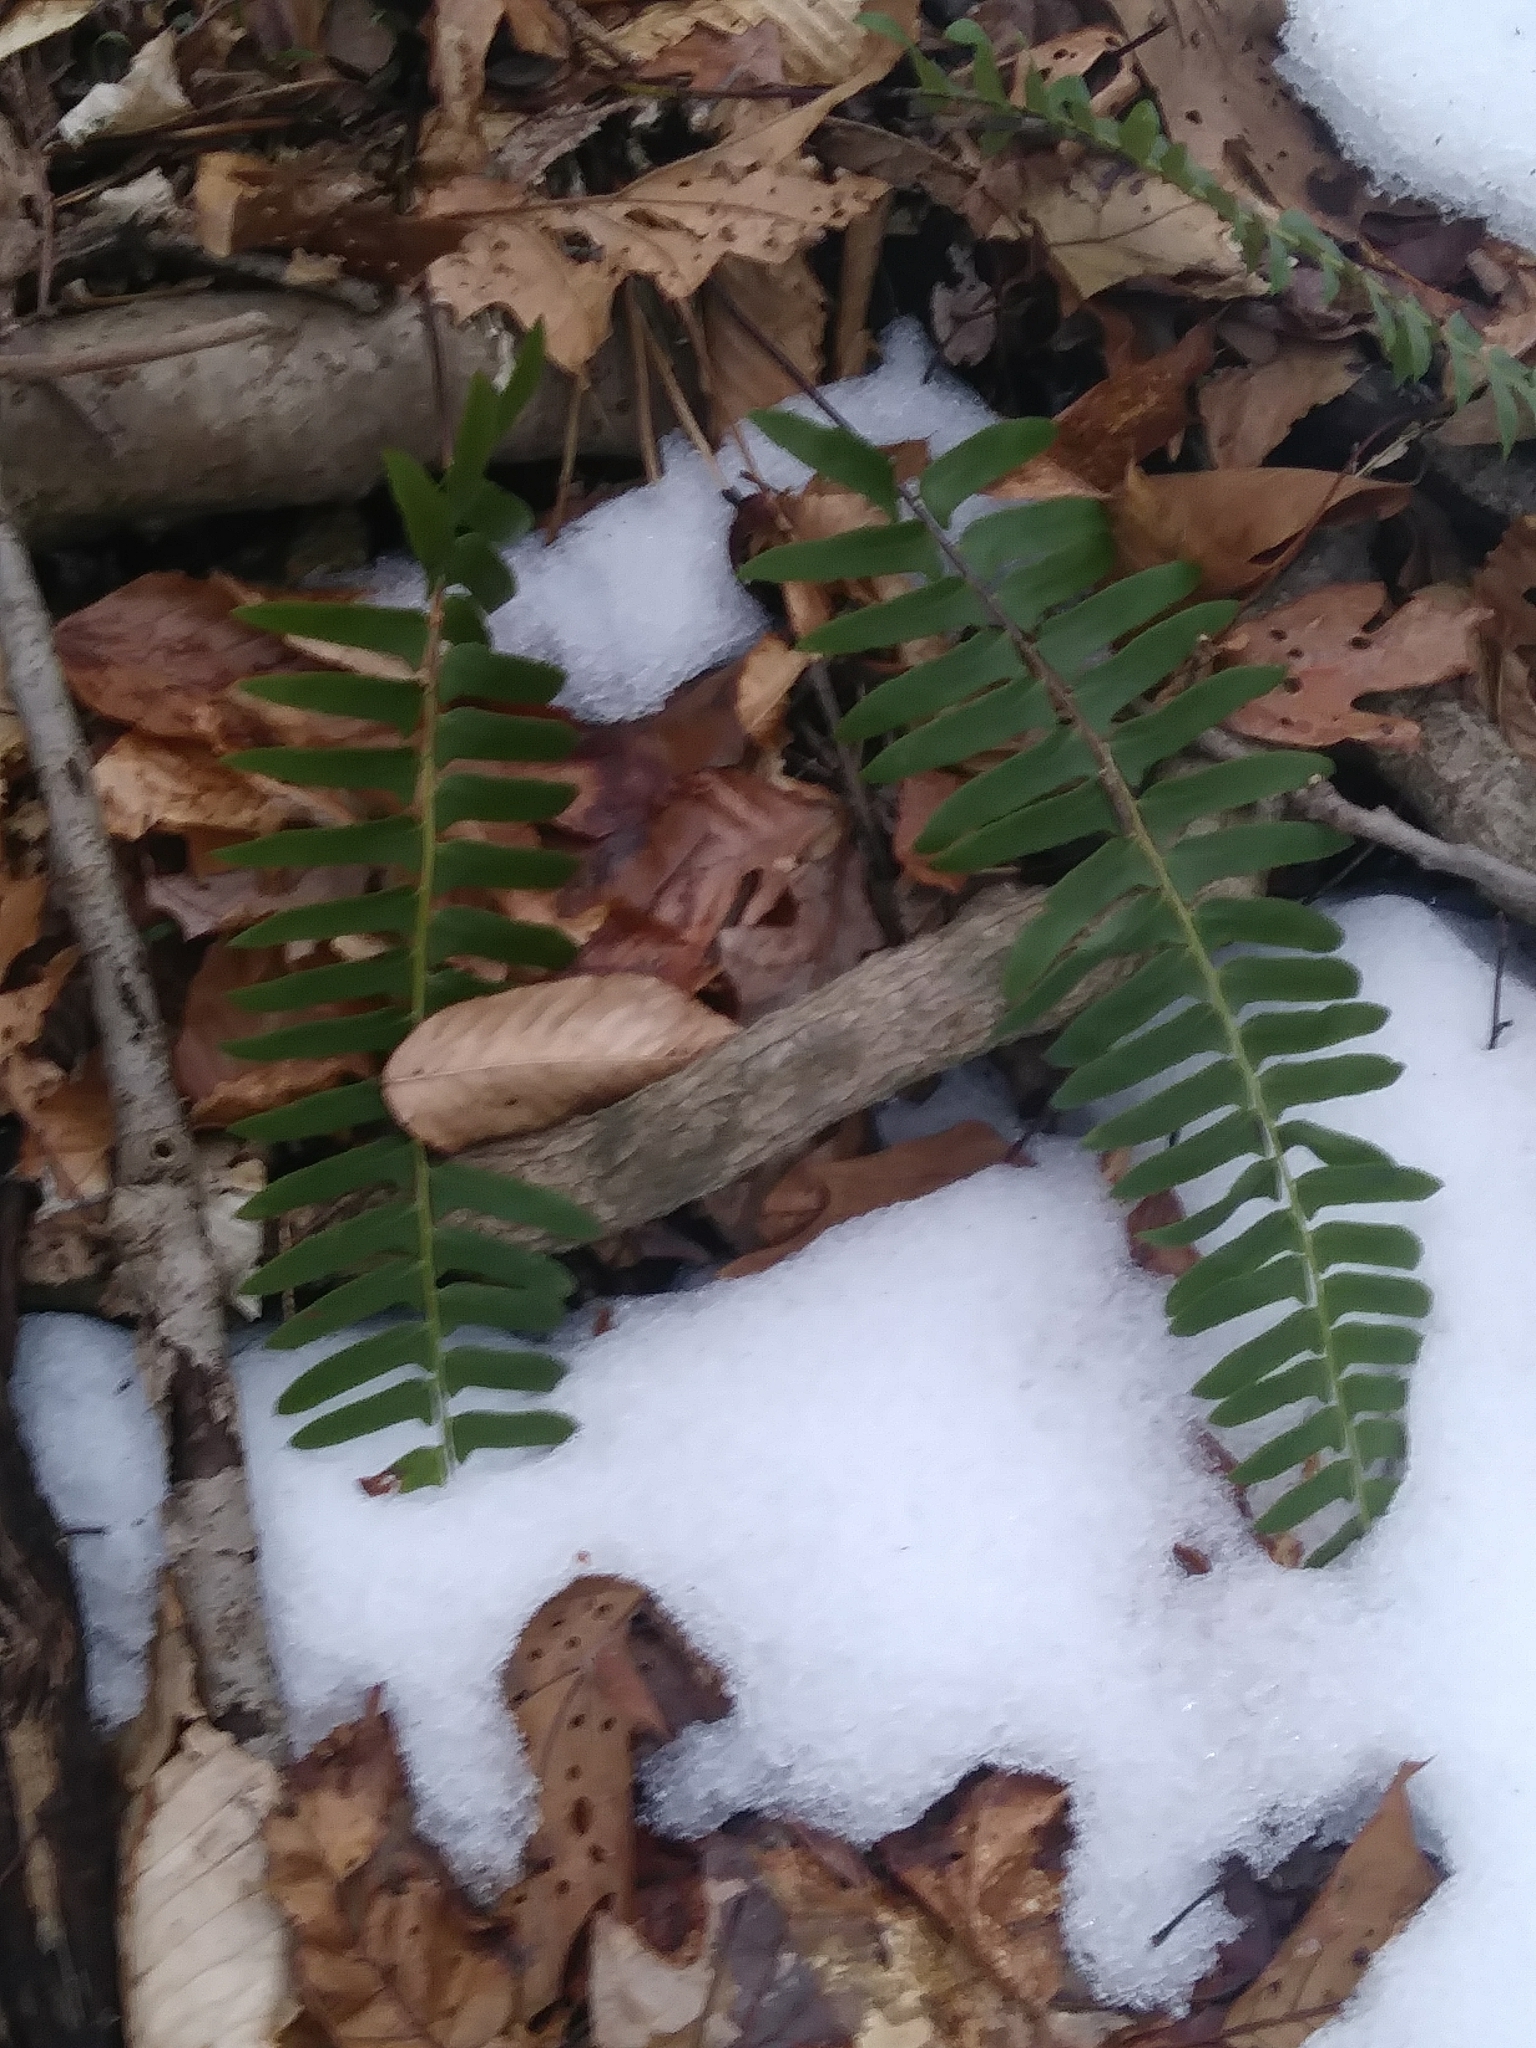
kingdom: Plantae
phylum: Tracheophyta
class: Polypodiopsida
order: Polypodiales
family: Dryopteridaceae
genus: Polystichum
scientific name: Polystichum acrostichoides
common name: Christmas fern
